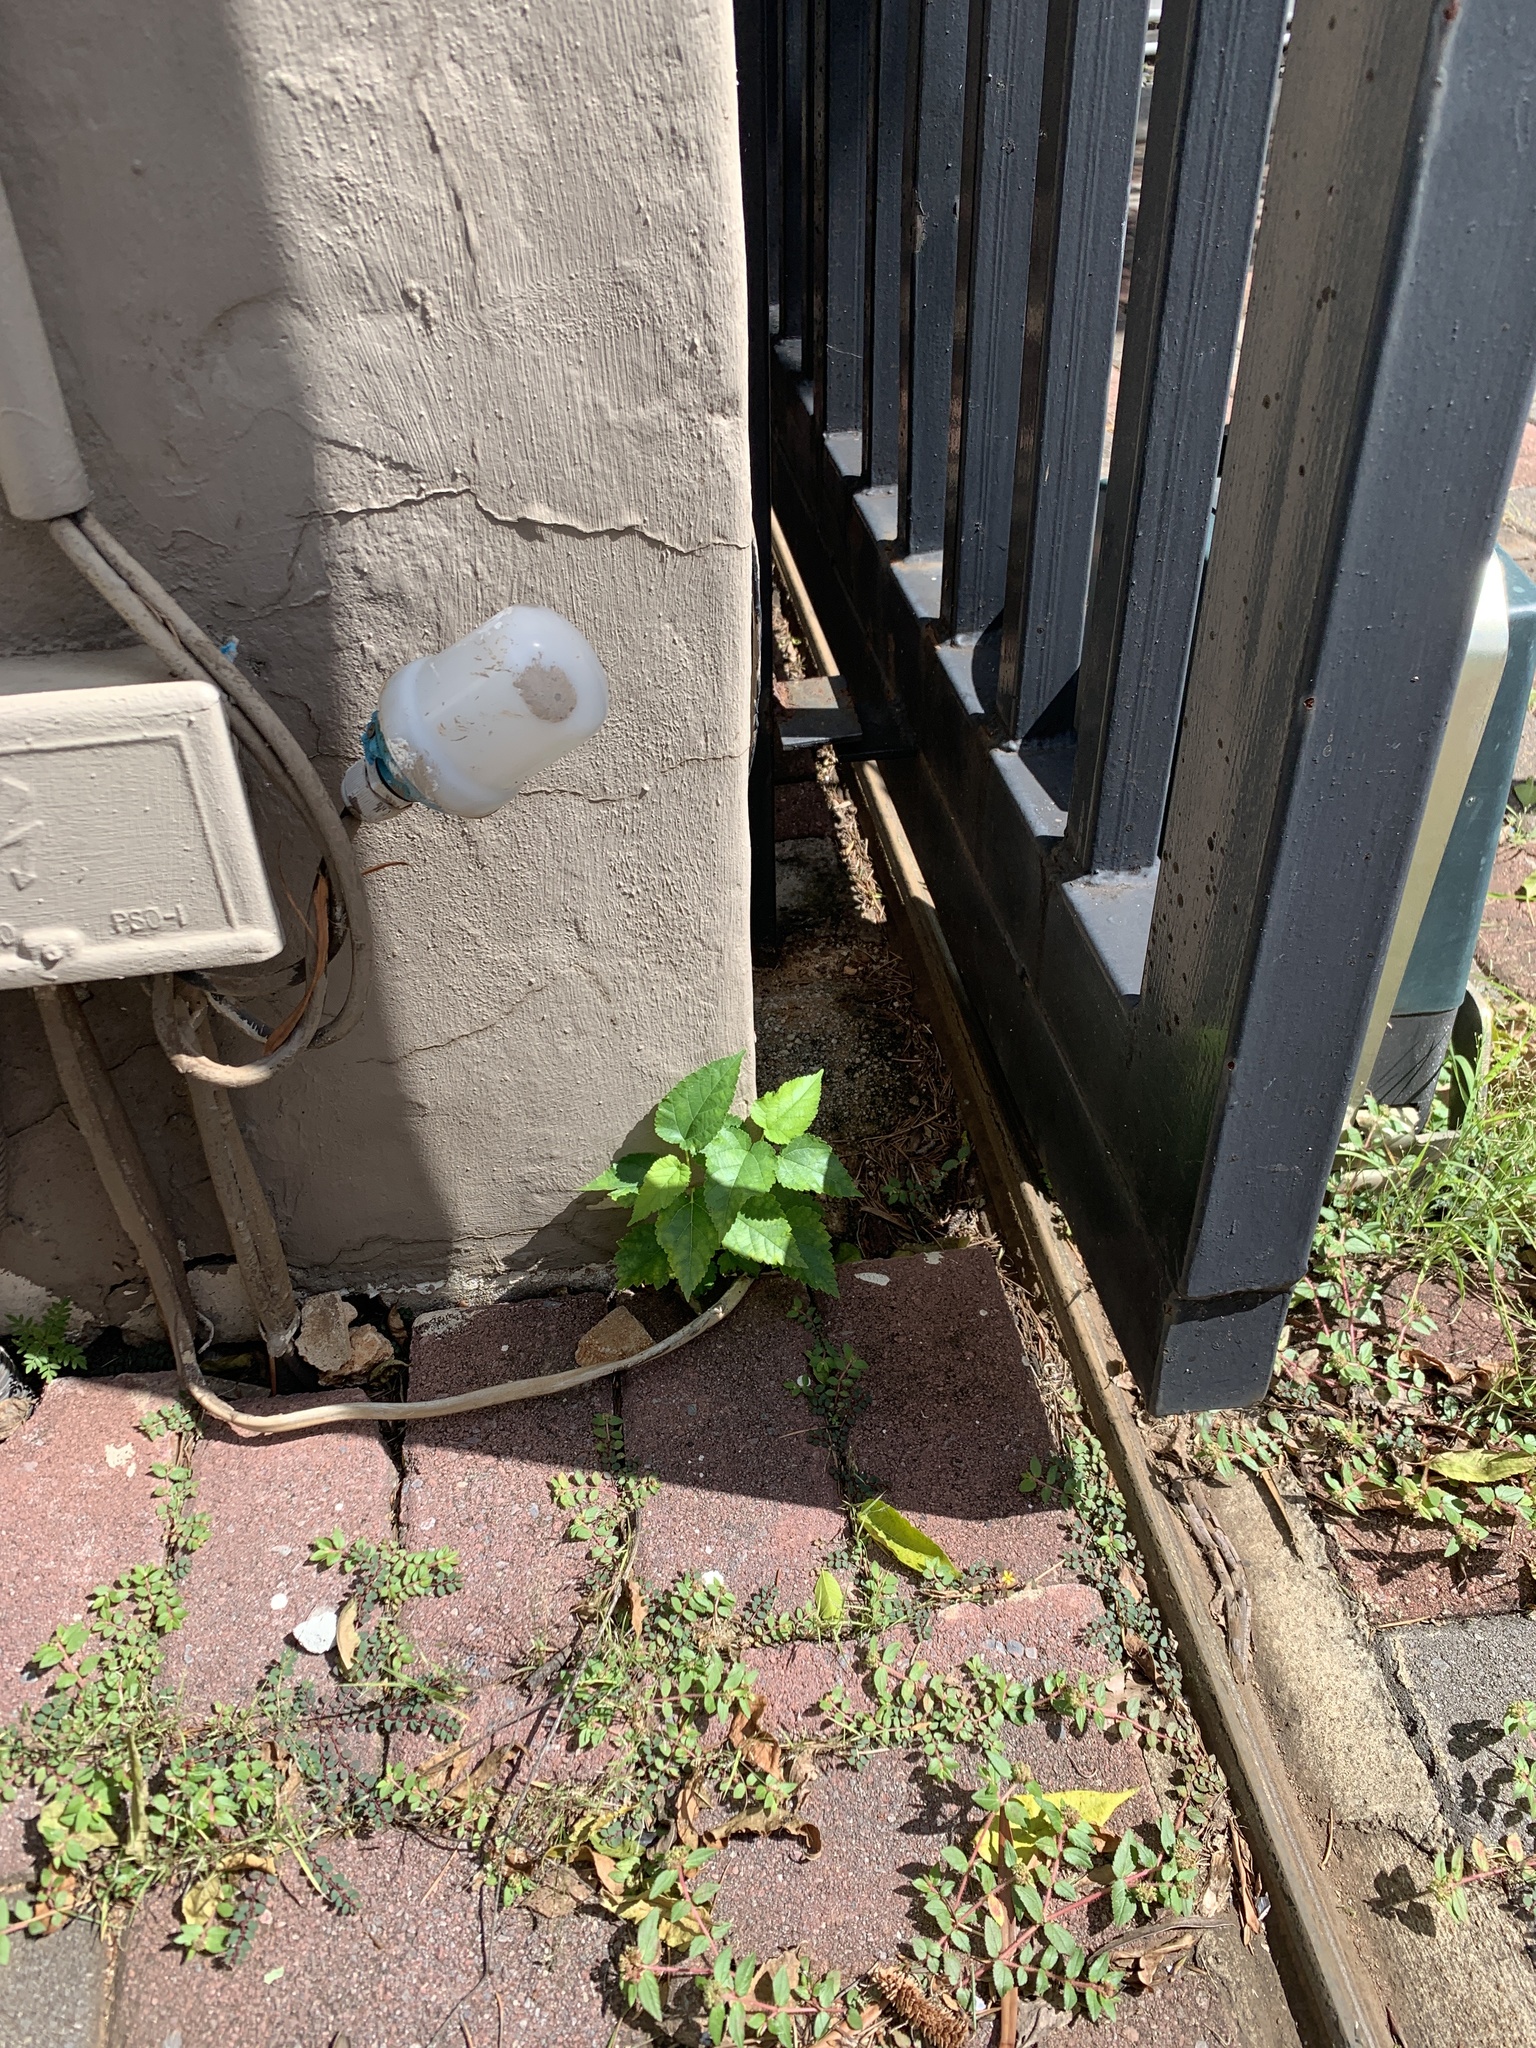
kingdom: Plantae
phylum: Tracheophyta
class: Magnoliopsida
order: Rosales
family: Moraceae
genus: Morus
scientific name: Morus alba
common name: White mulberry
